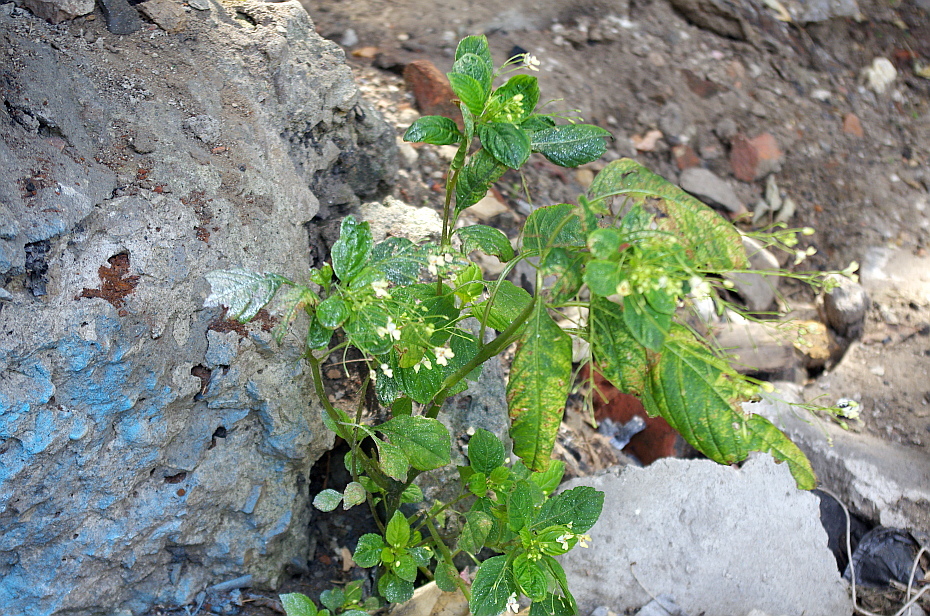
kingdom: Plantae
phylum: Tracheophyta
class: Magnoliopsida
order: Ericales
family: Balsaminaceae
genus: Impatiens
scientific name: Impatiens parviflora
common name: Small balsam
